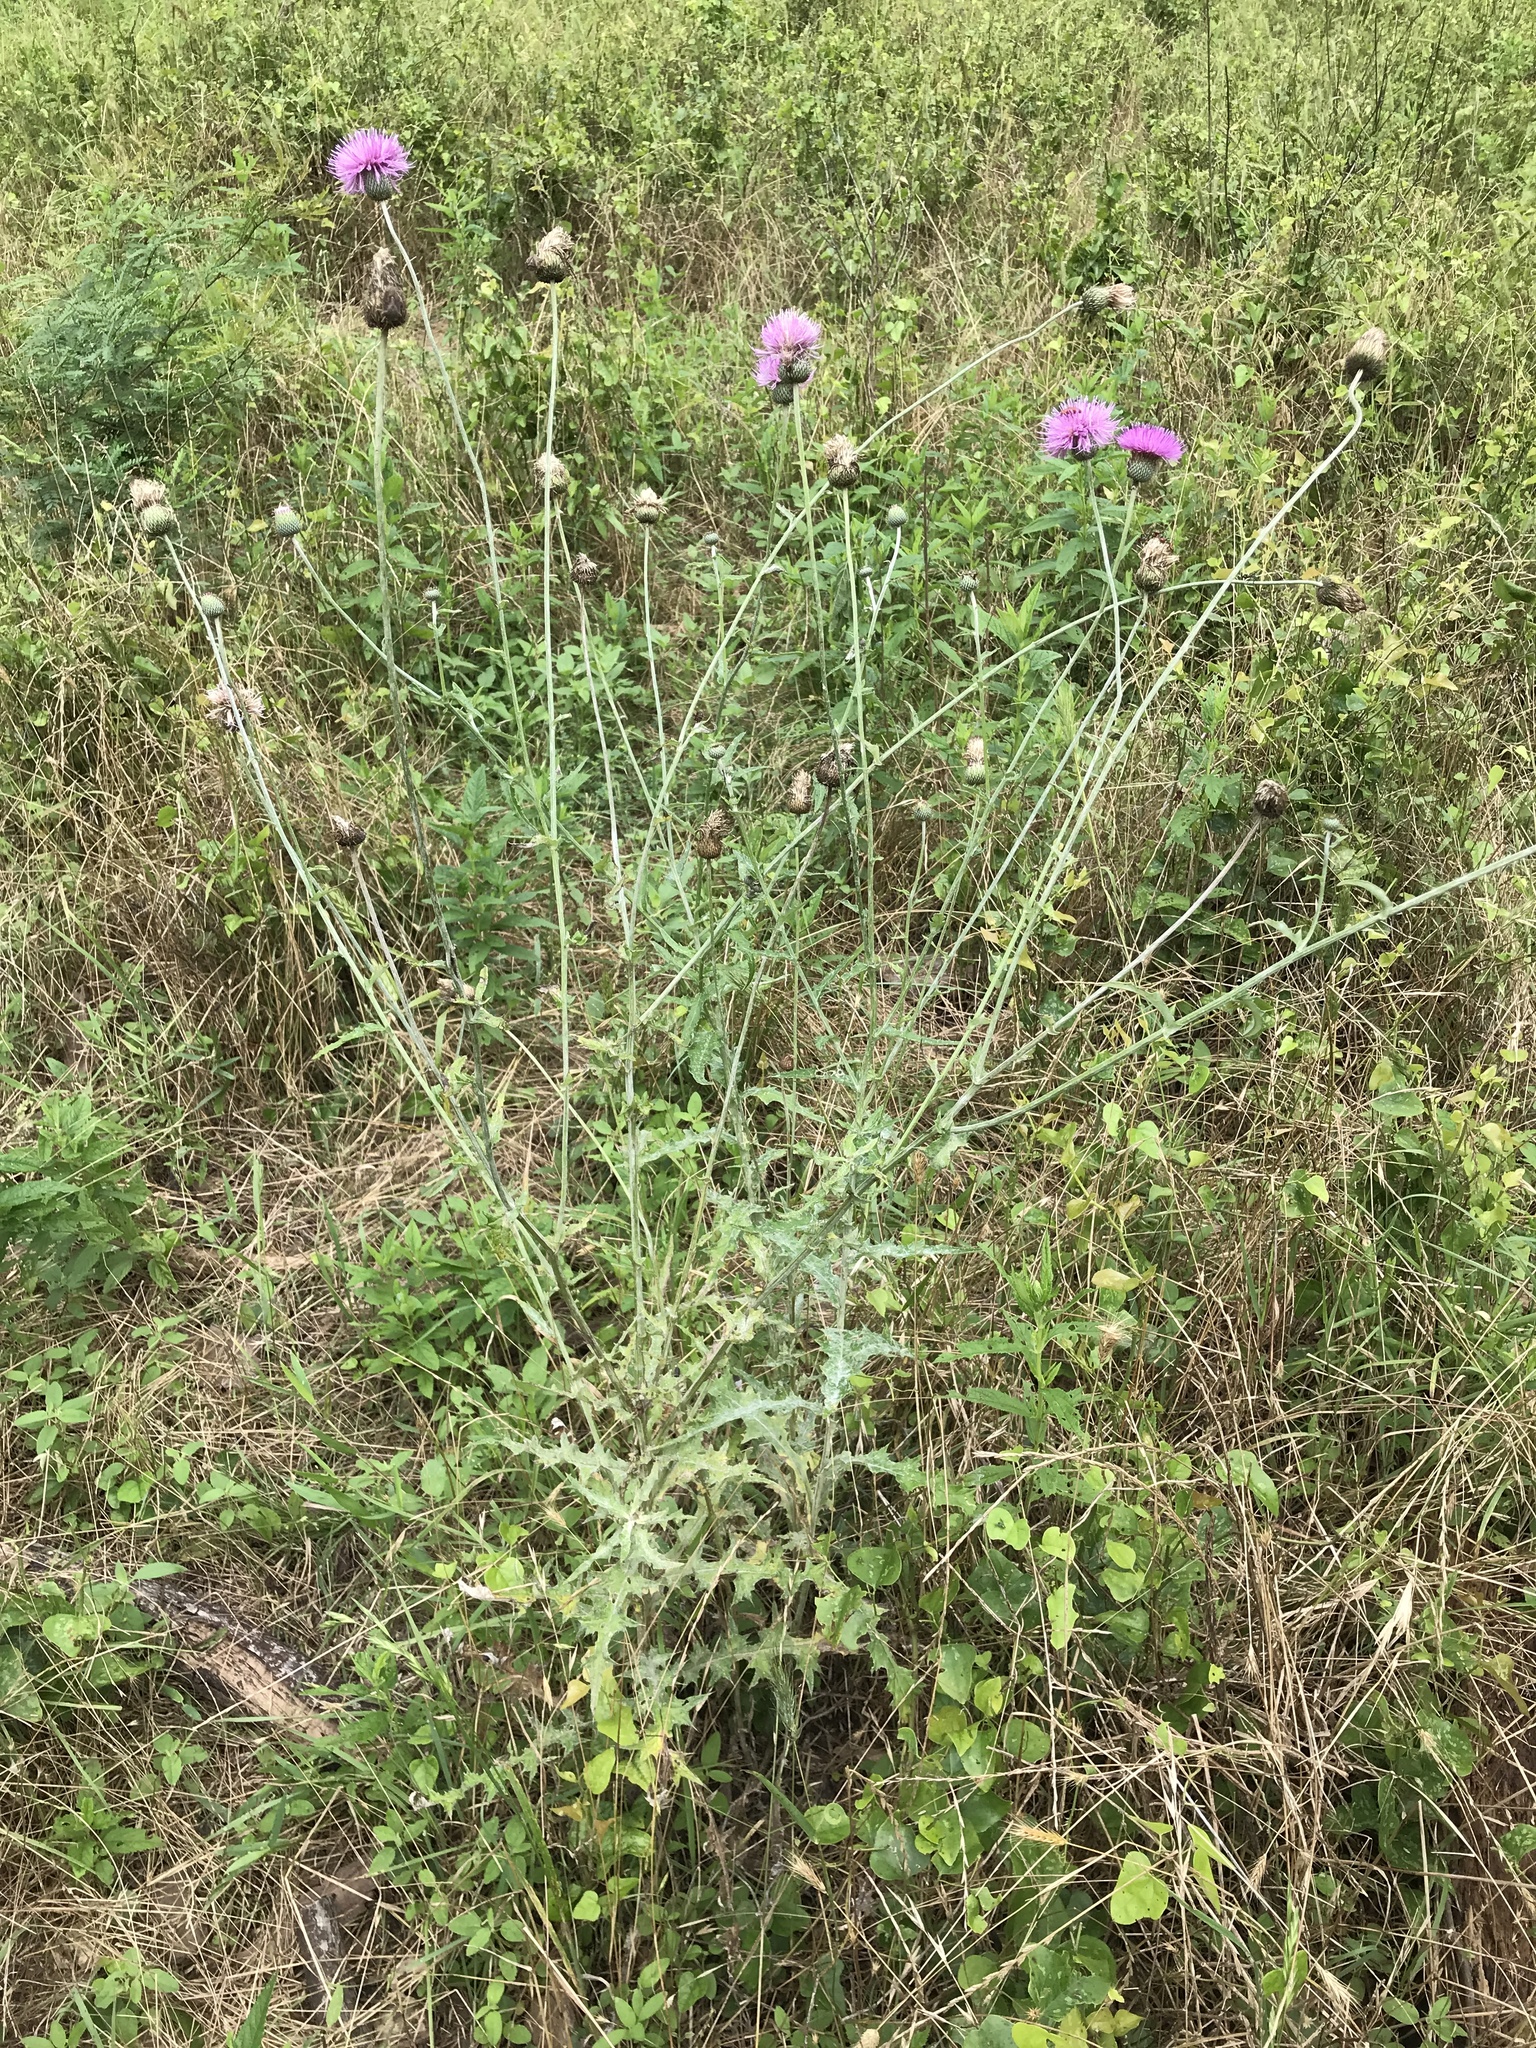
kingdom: Plantae
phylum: Tracheophyta
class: Magnoliopsida
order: Asterales
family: Asteraceae
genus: Cirsium
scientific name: Cirsium texanum
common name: Texas purple thistle
